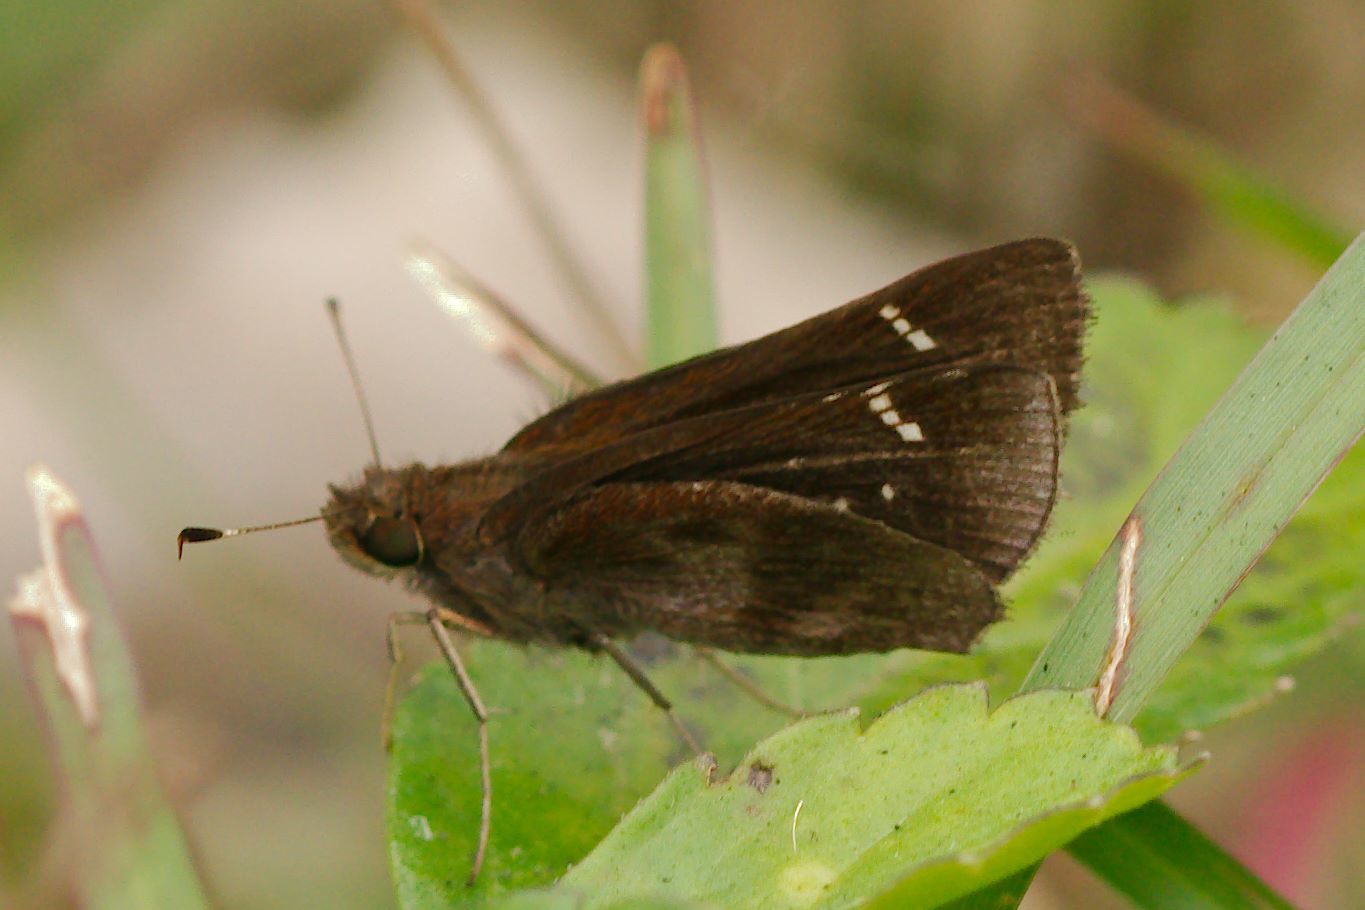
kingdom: Animalia
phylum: Arthropoda
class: Insecta
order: Lepidoptera
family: Hesperiidae
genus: Lerema
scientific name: Lerema accius
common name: Clouded skipper
